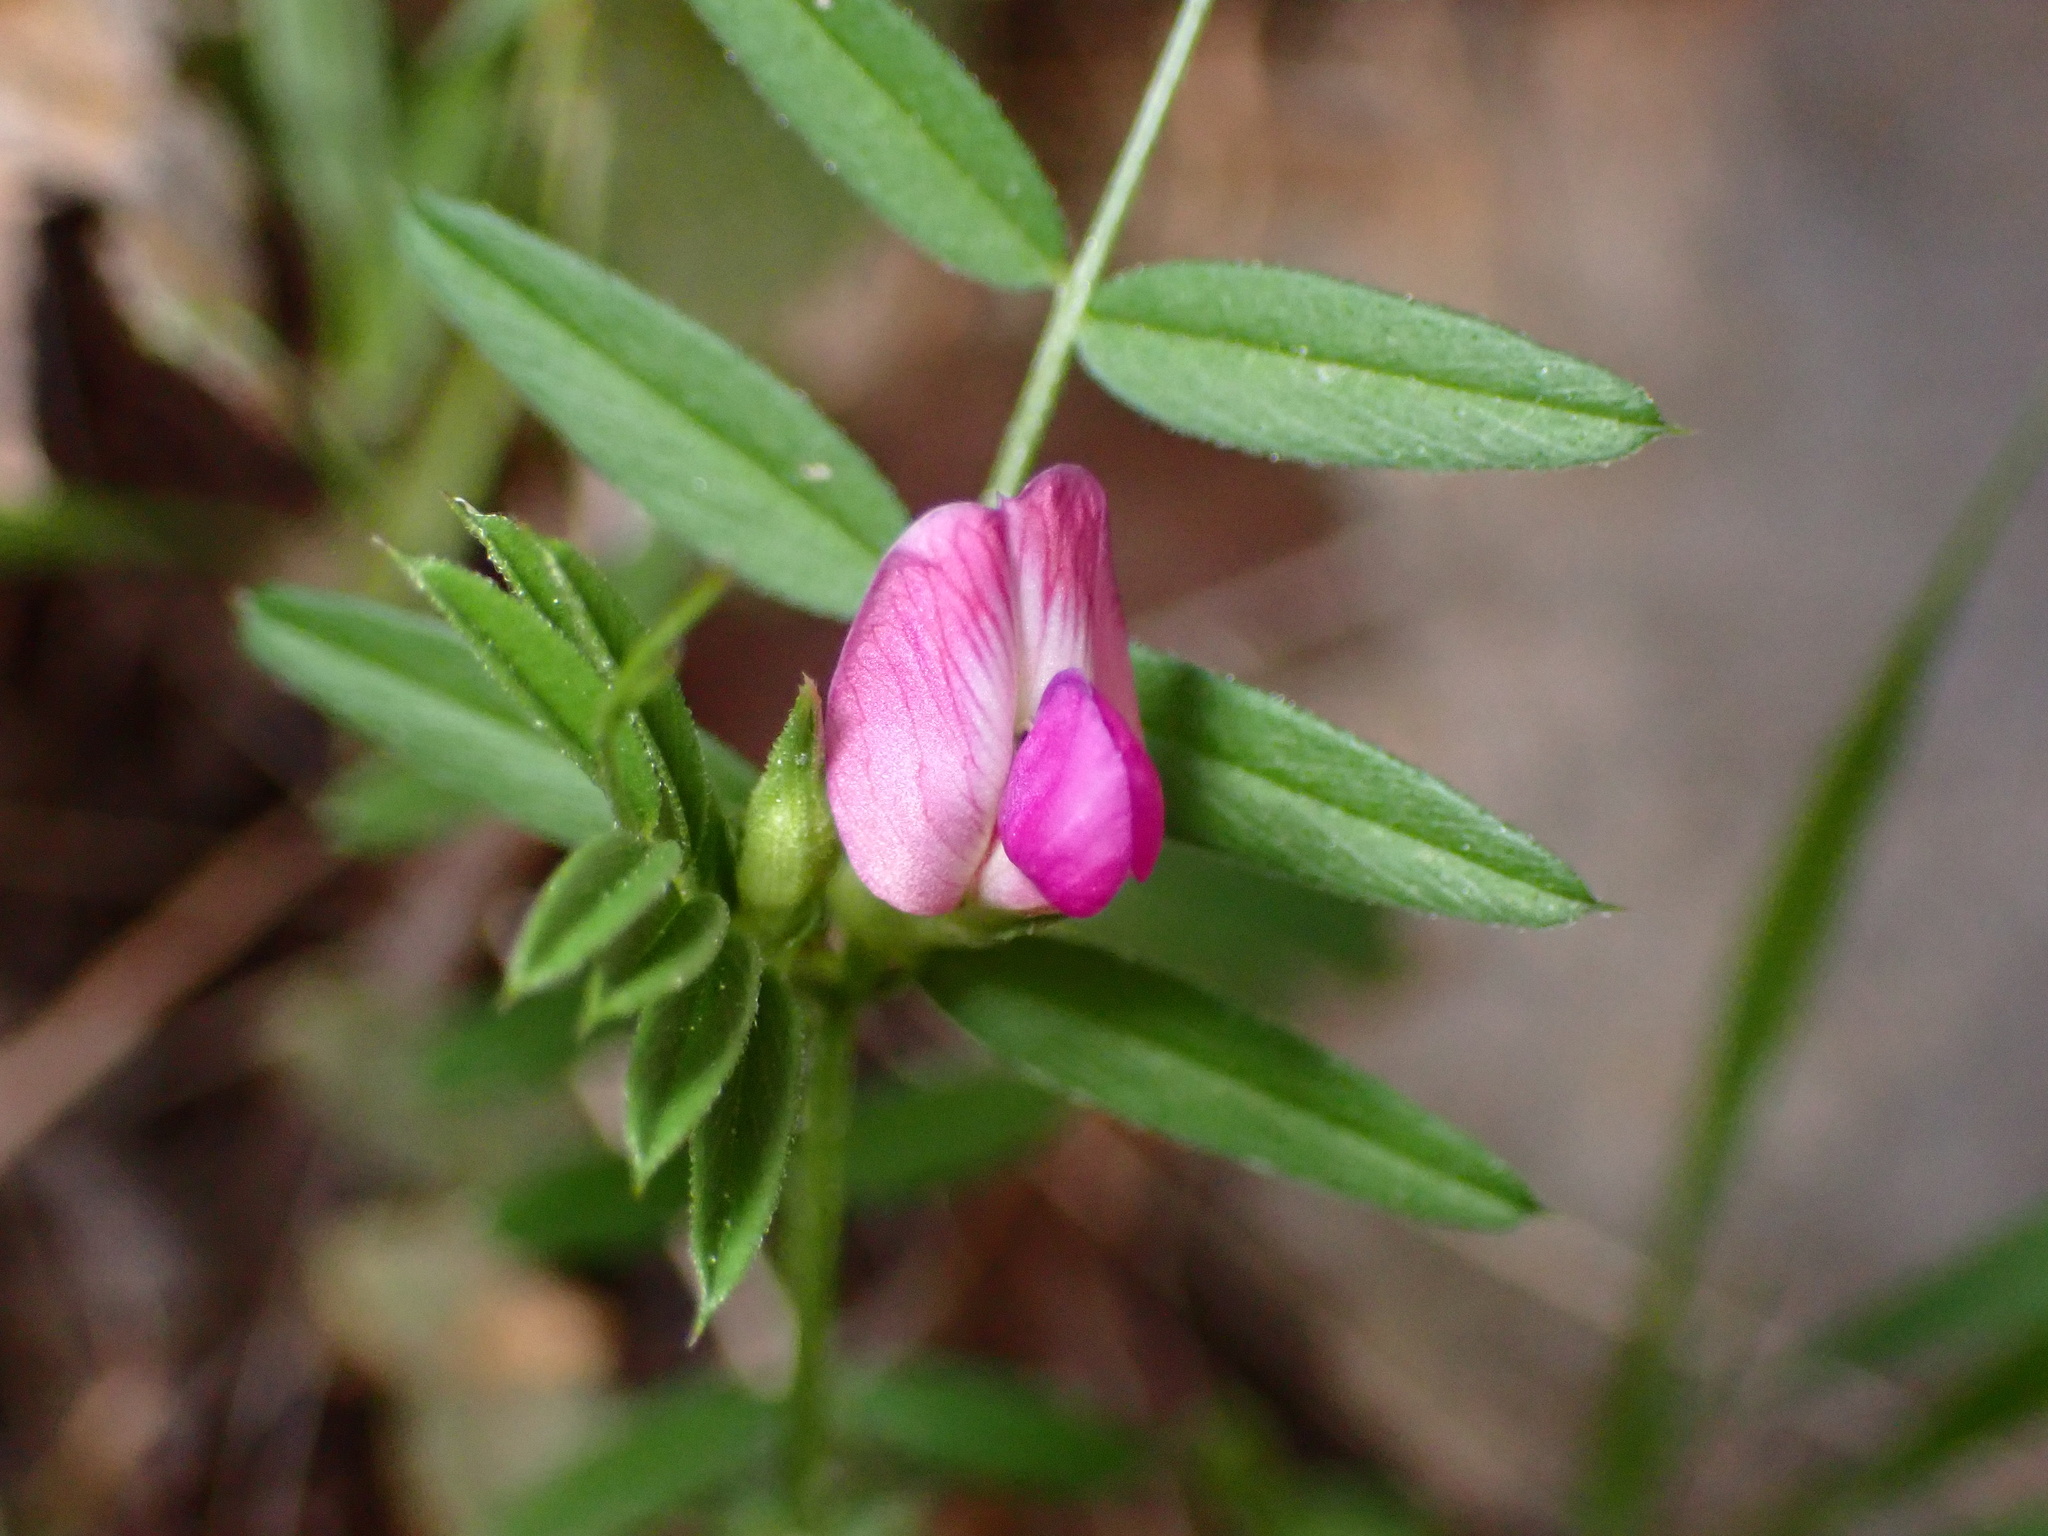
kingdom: Plantae
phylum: Tracheophyta
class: Magnoliopsida
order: Fabales
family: Fabaceae
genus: Vicia
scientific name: Vicia sativa
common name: Garden vetch
